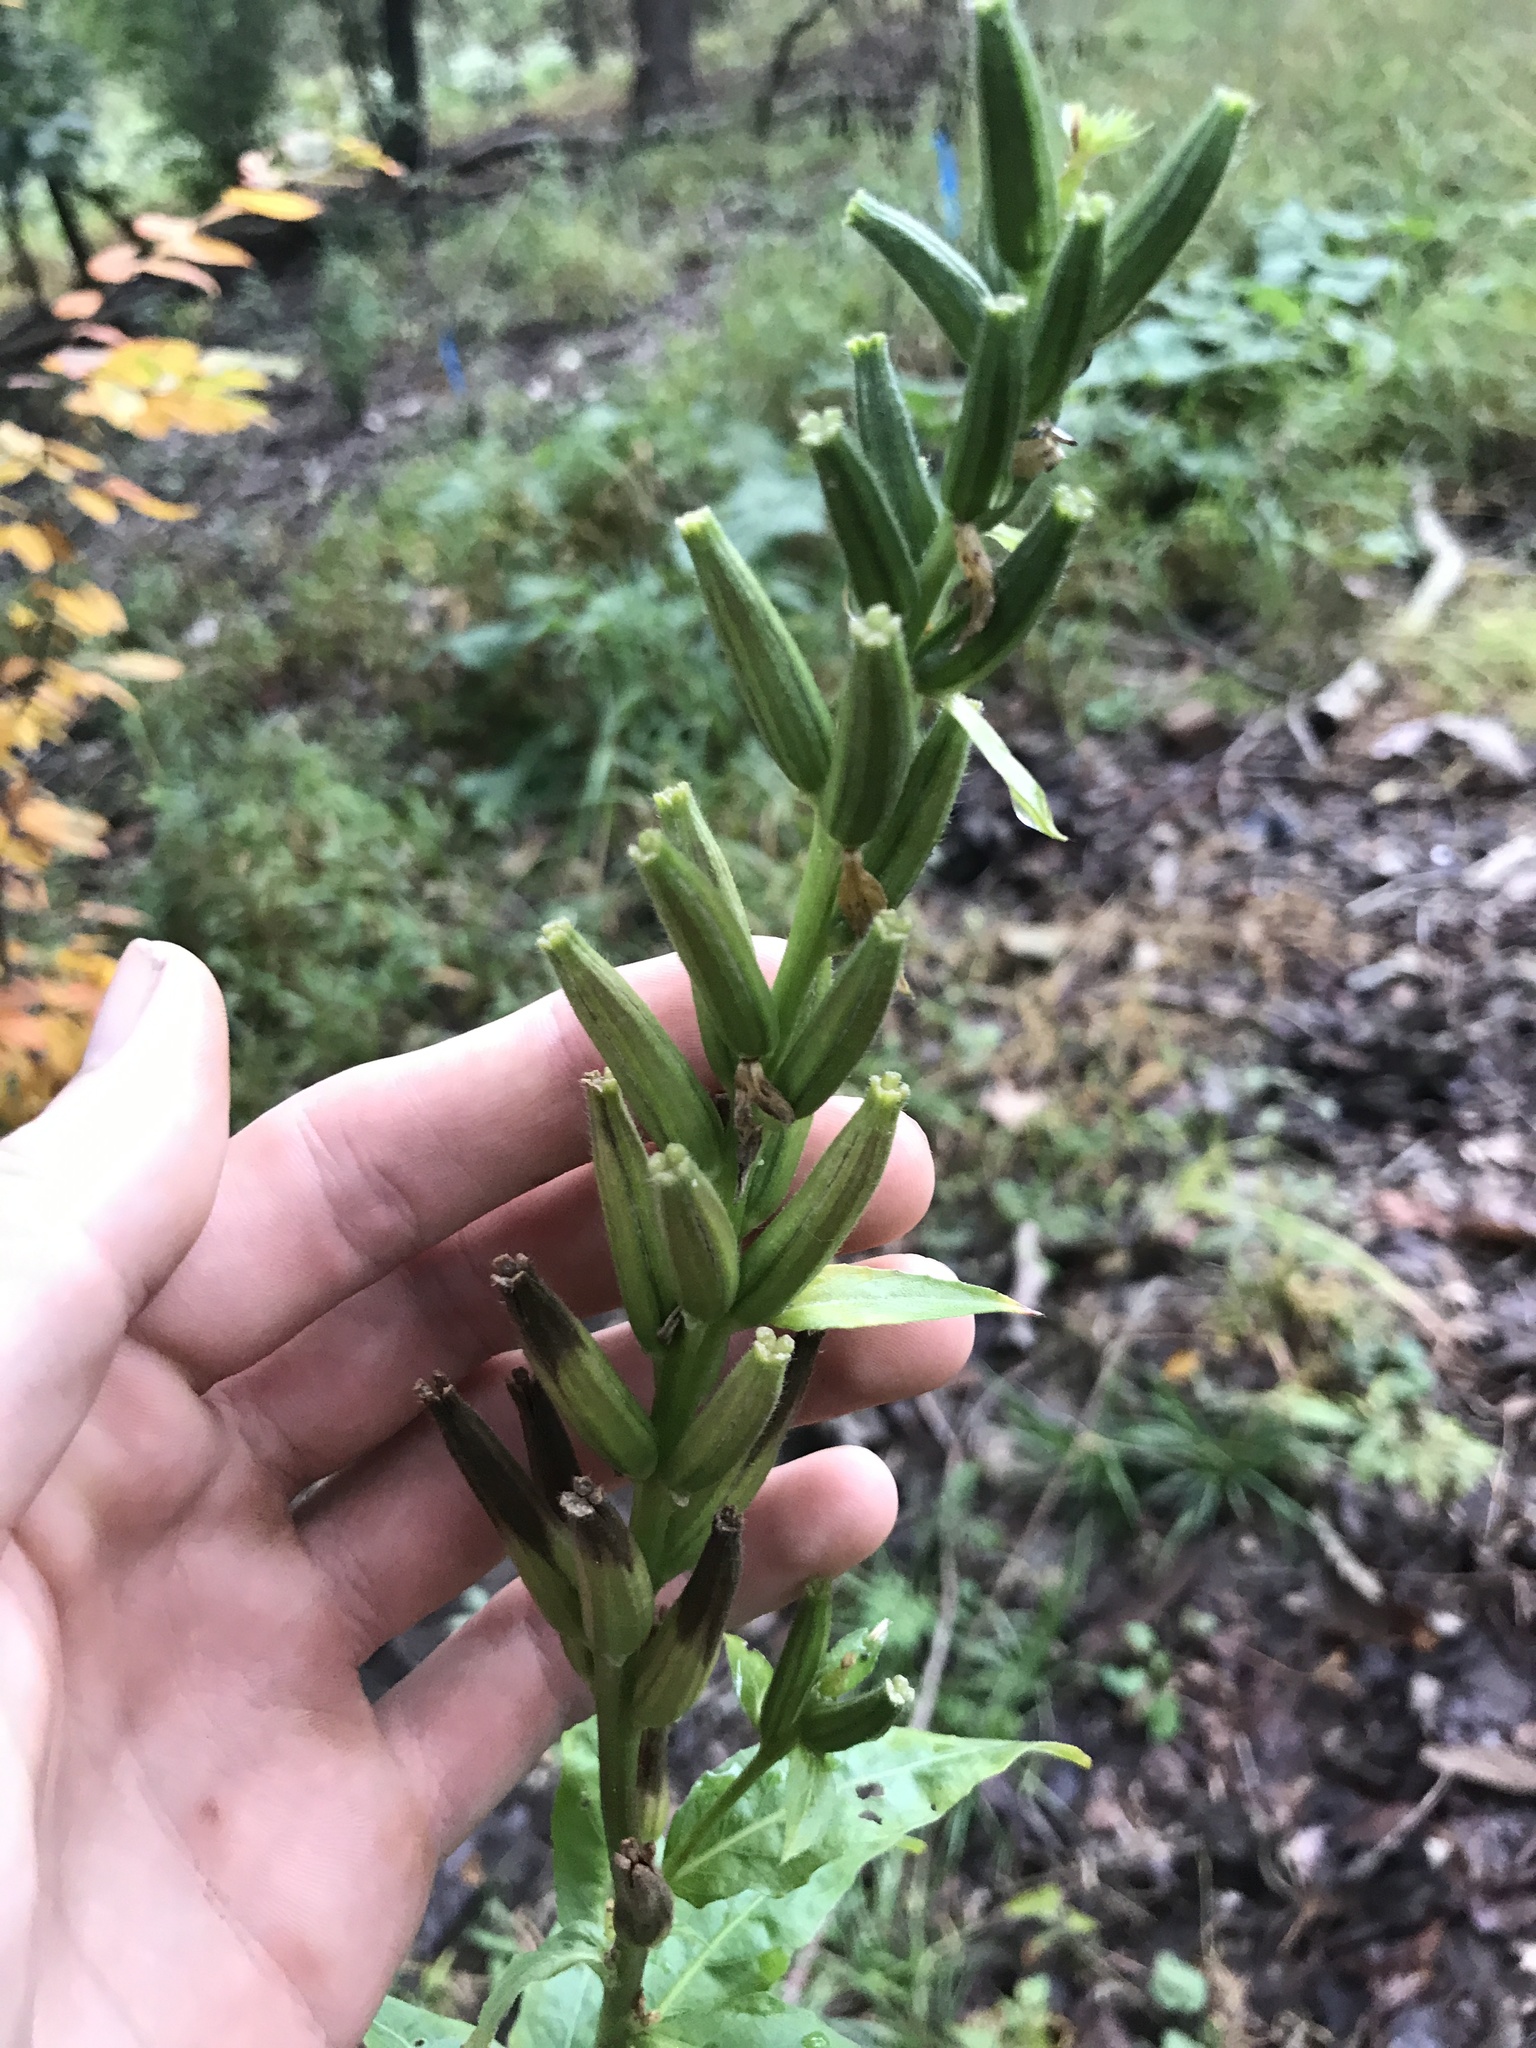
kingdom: Plantae
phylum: Tracheophyta
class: Magnoliopsida
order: Myrtales
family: Onagraceae
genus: Oenothera
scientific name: Oenothera biennis
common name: Common evening-primrose
